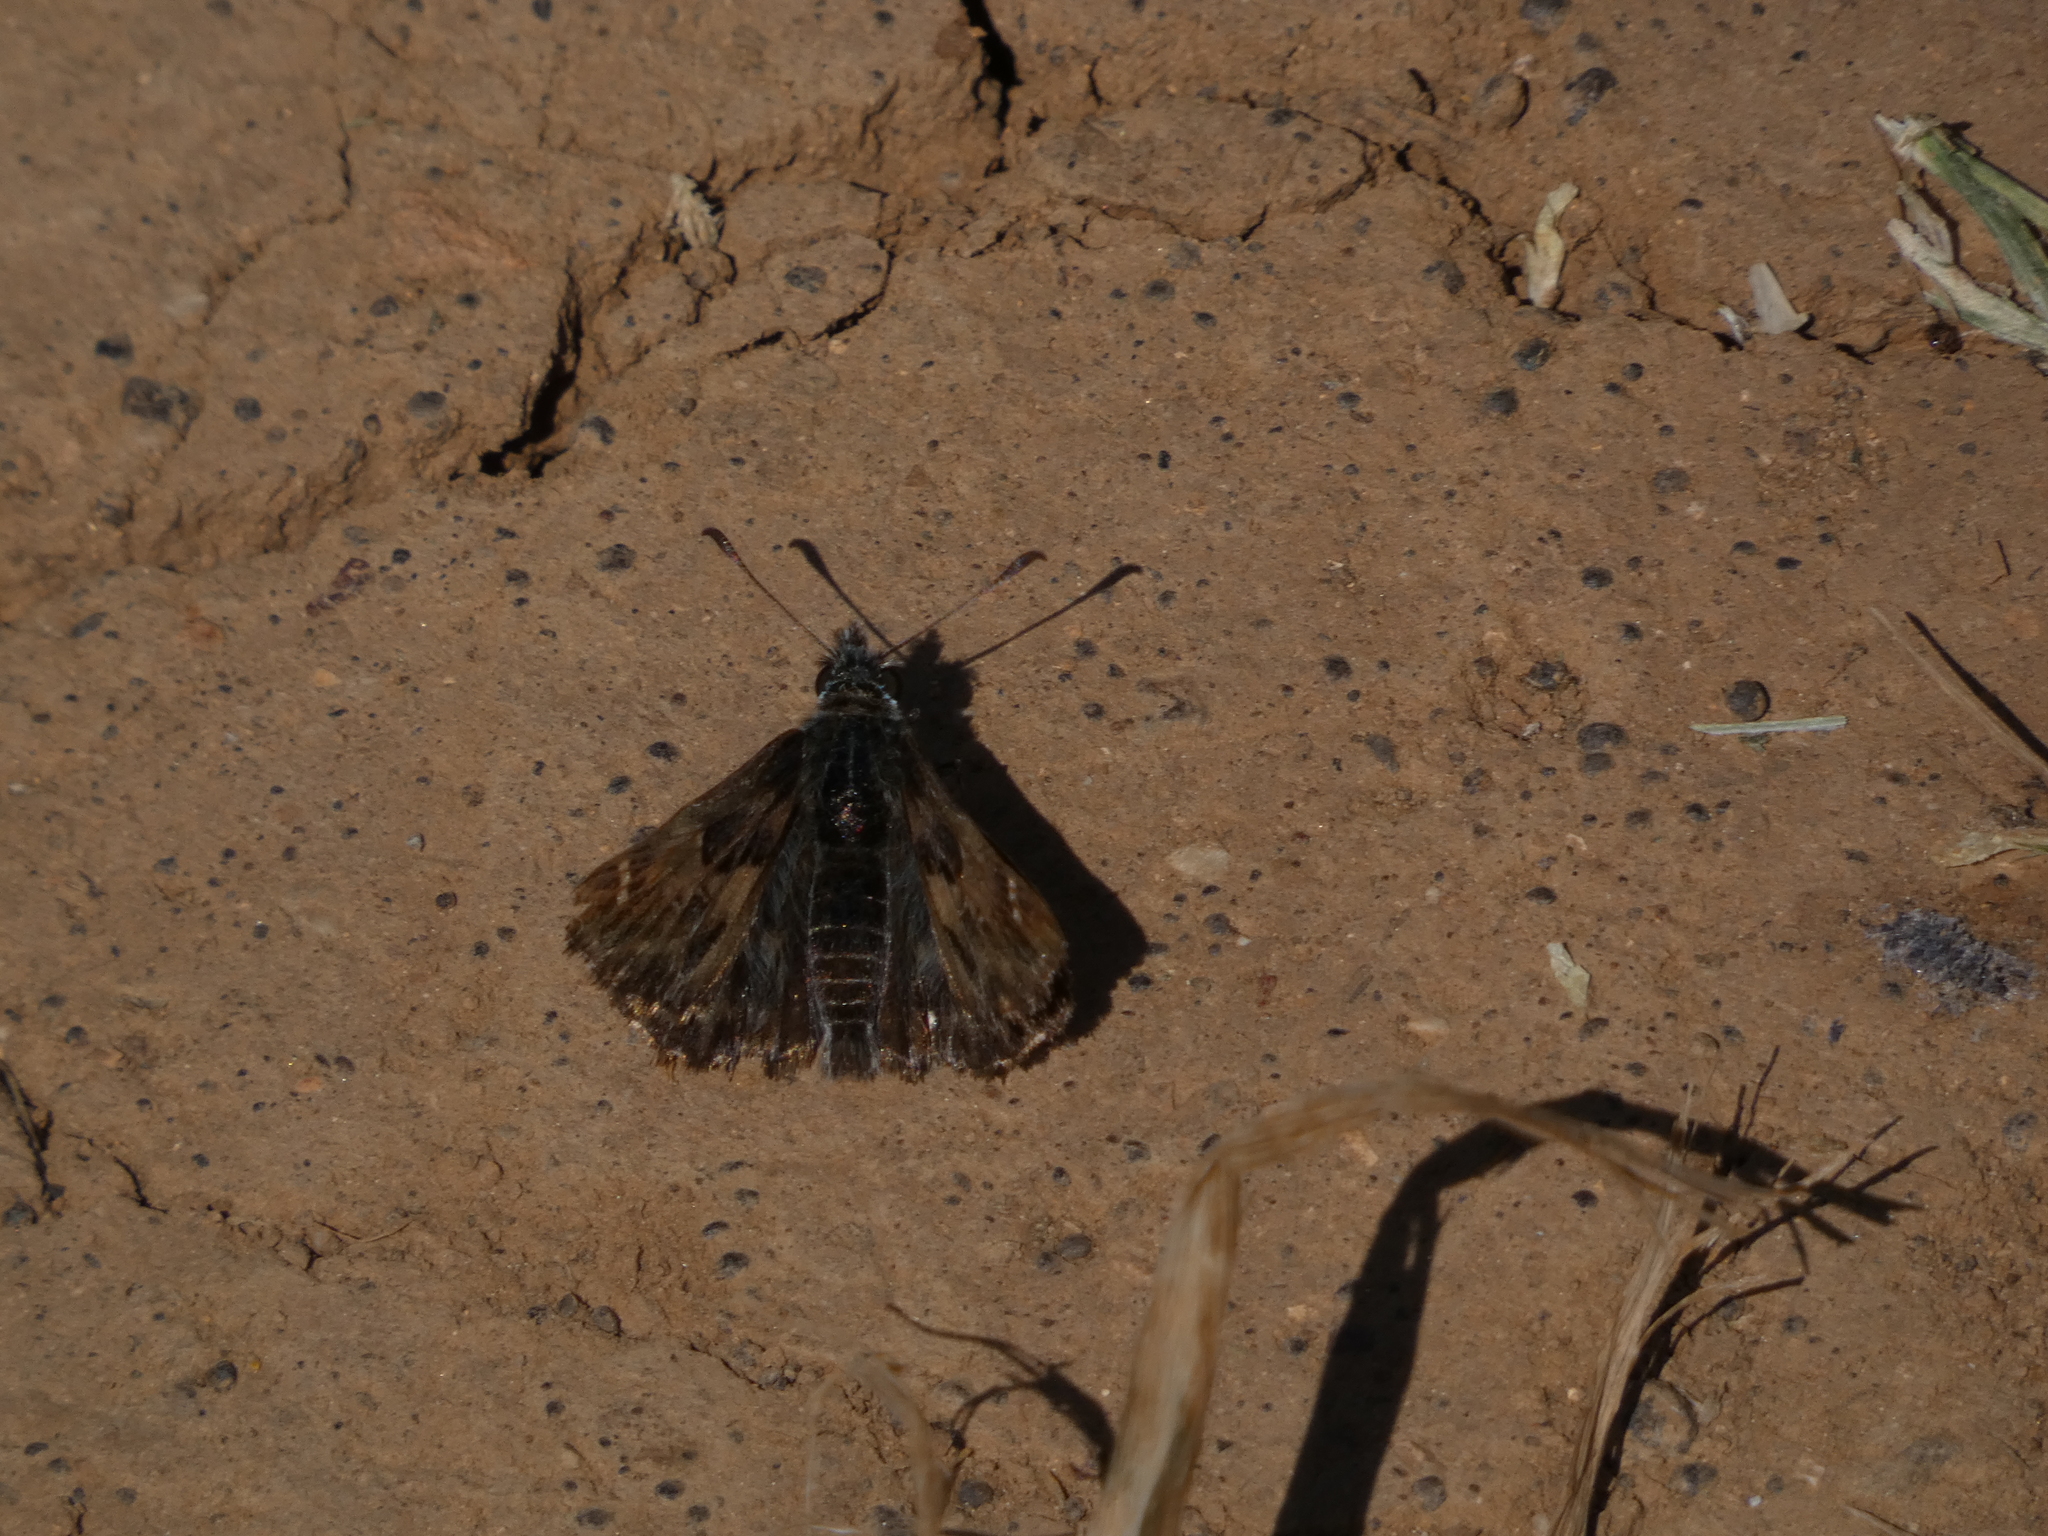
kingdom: Animalia
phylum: Arthropoda
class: Insecta
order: Lepidoptera
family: Hesperiidae
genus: Carcharodus
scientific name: Carcharodus alceae
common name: Mallow skipper
